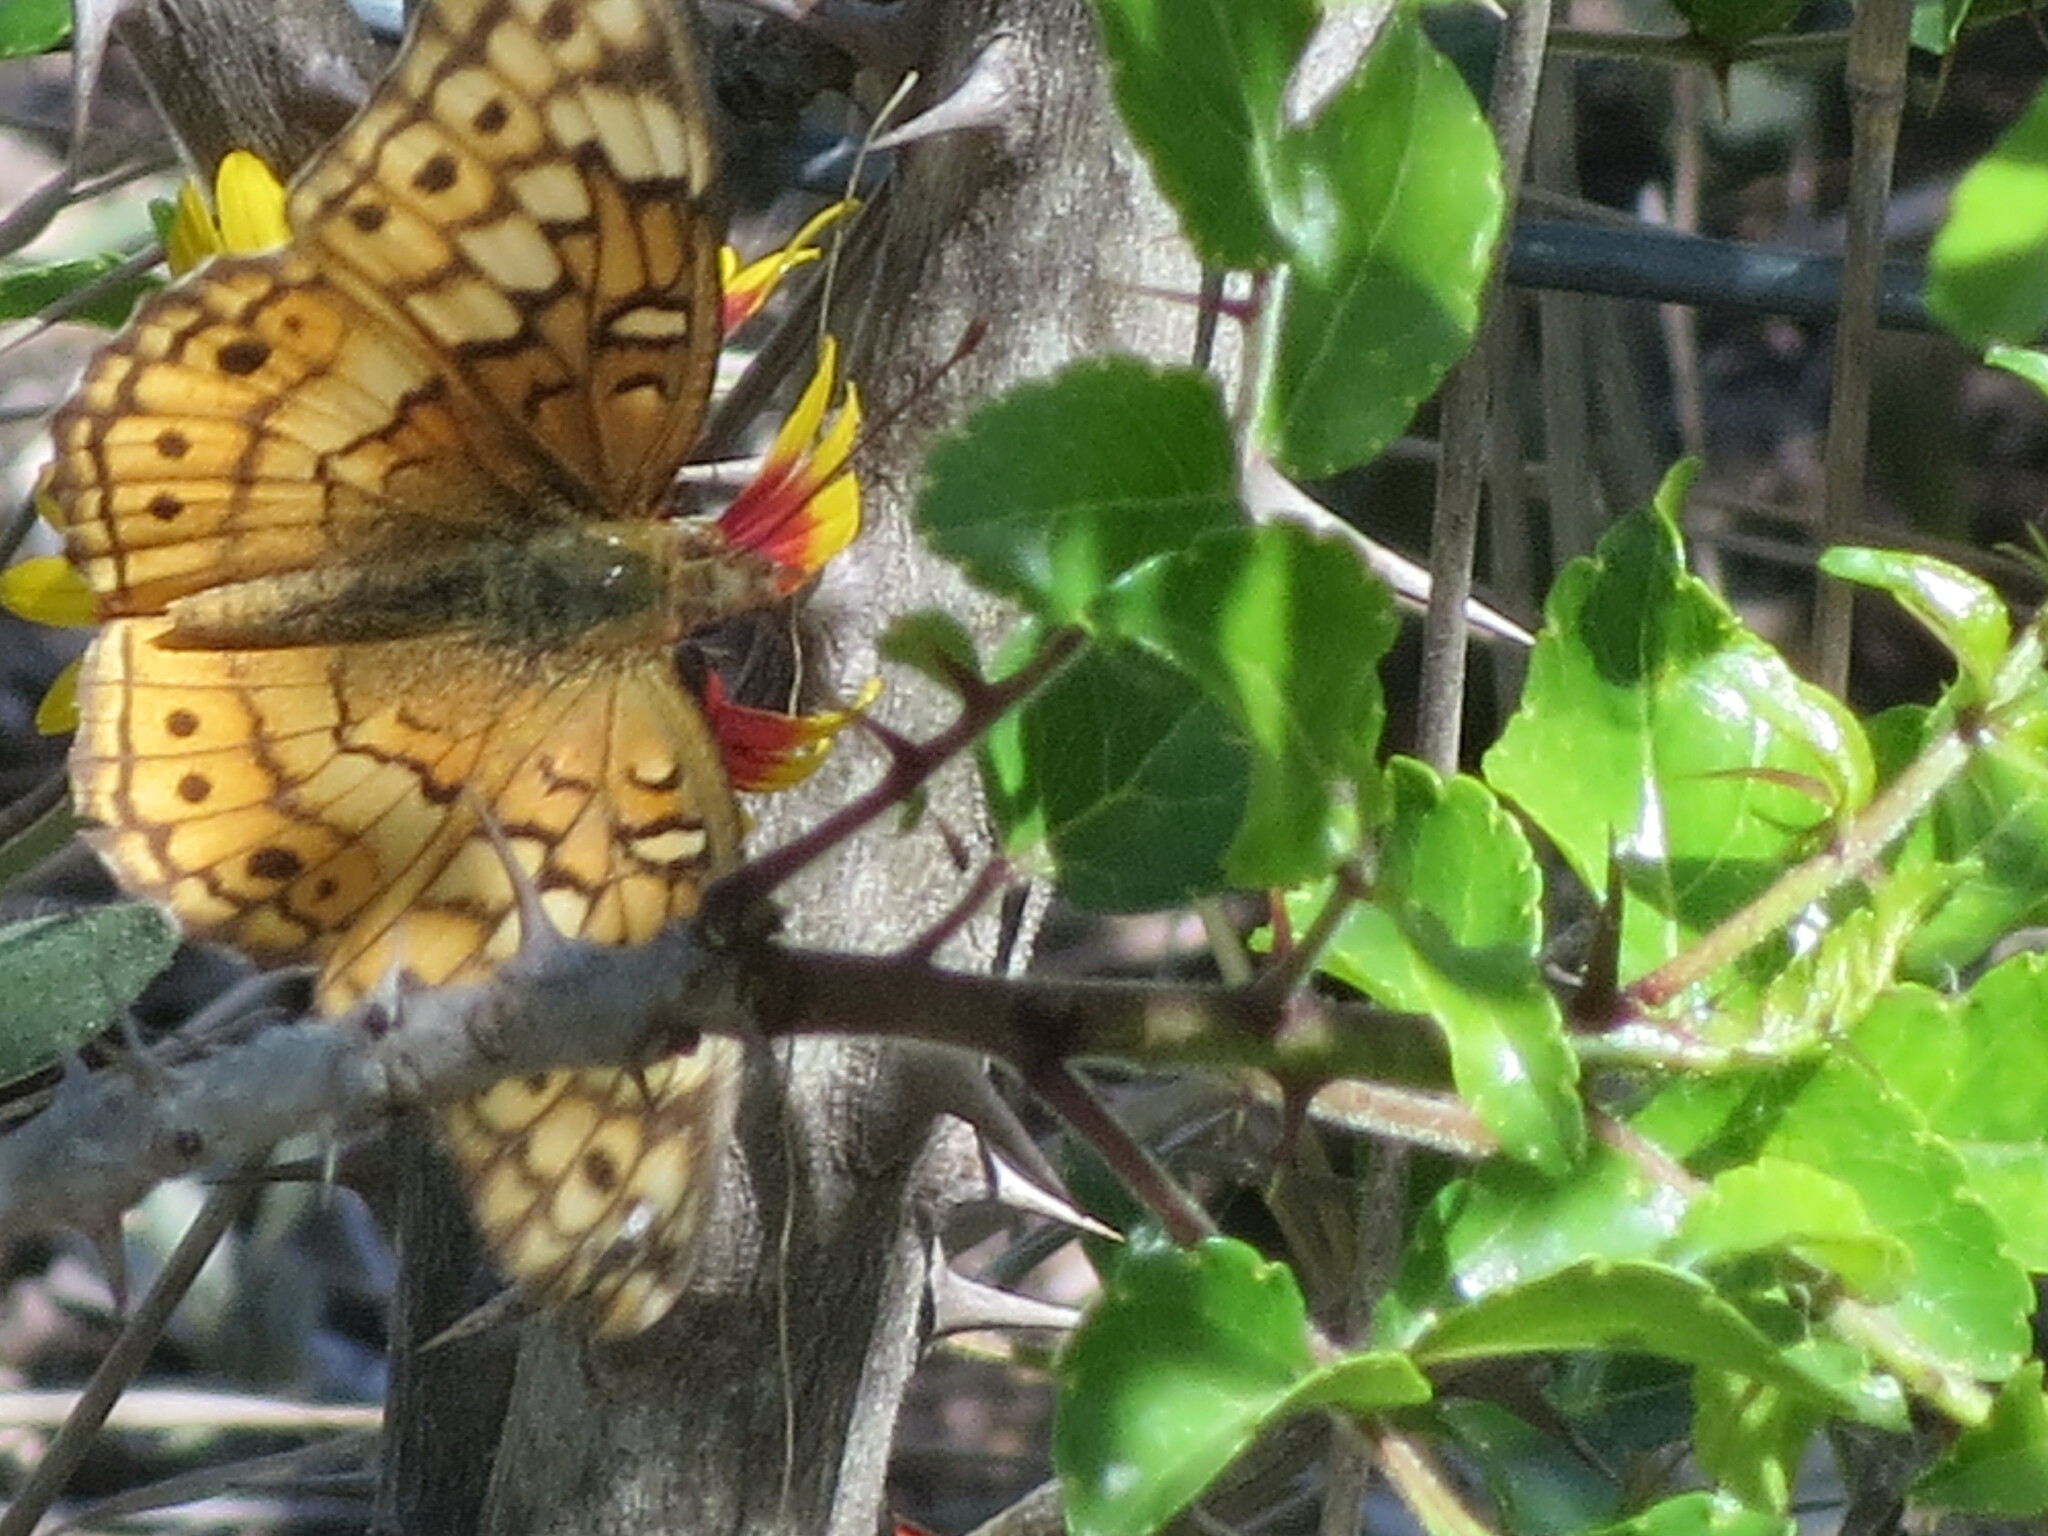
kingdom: Animalia
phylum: Arthropoda
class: Insecta
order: Lepidoptera
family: Nymphalidae
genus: Euptoieta
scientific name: Euptoieta claudia
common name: Variegated fritillary
